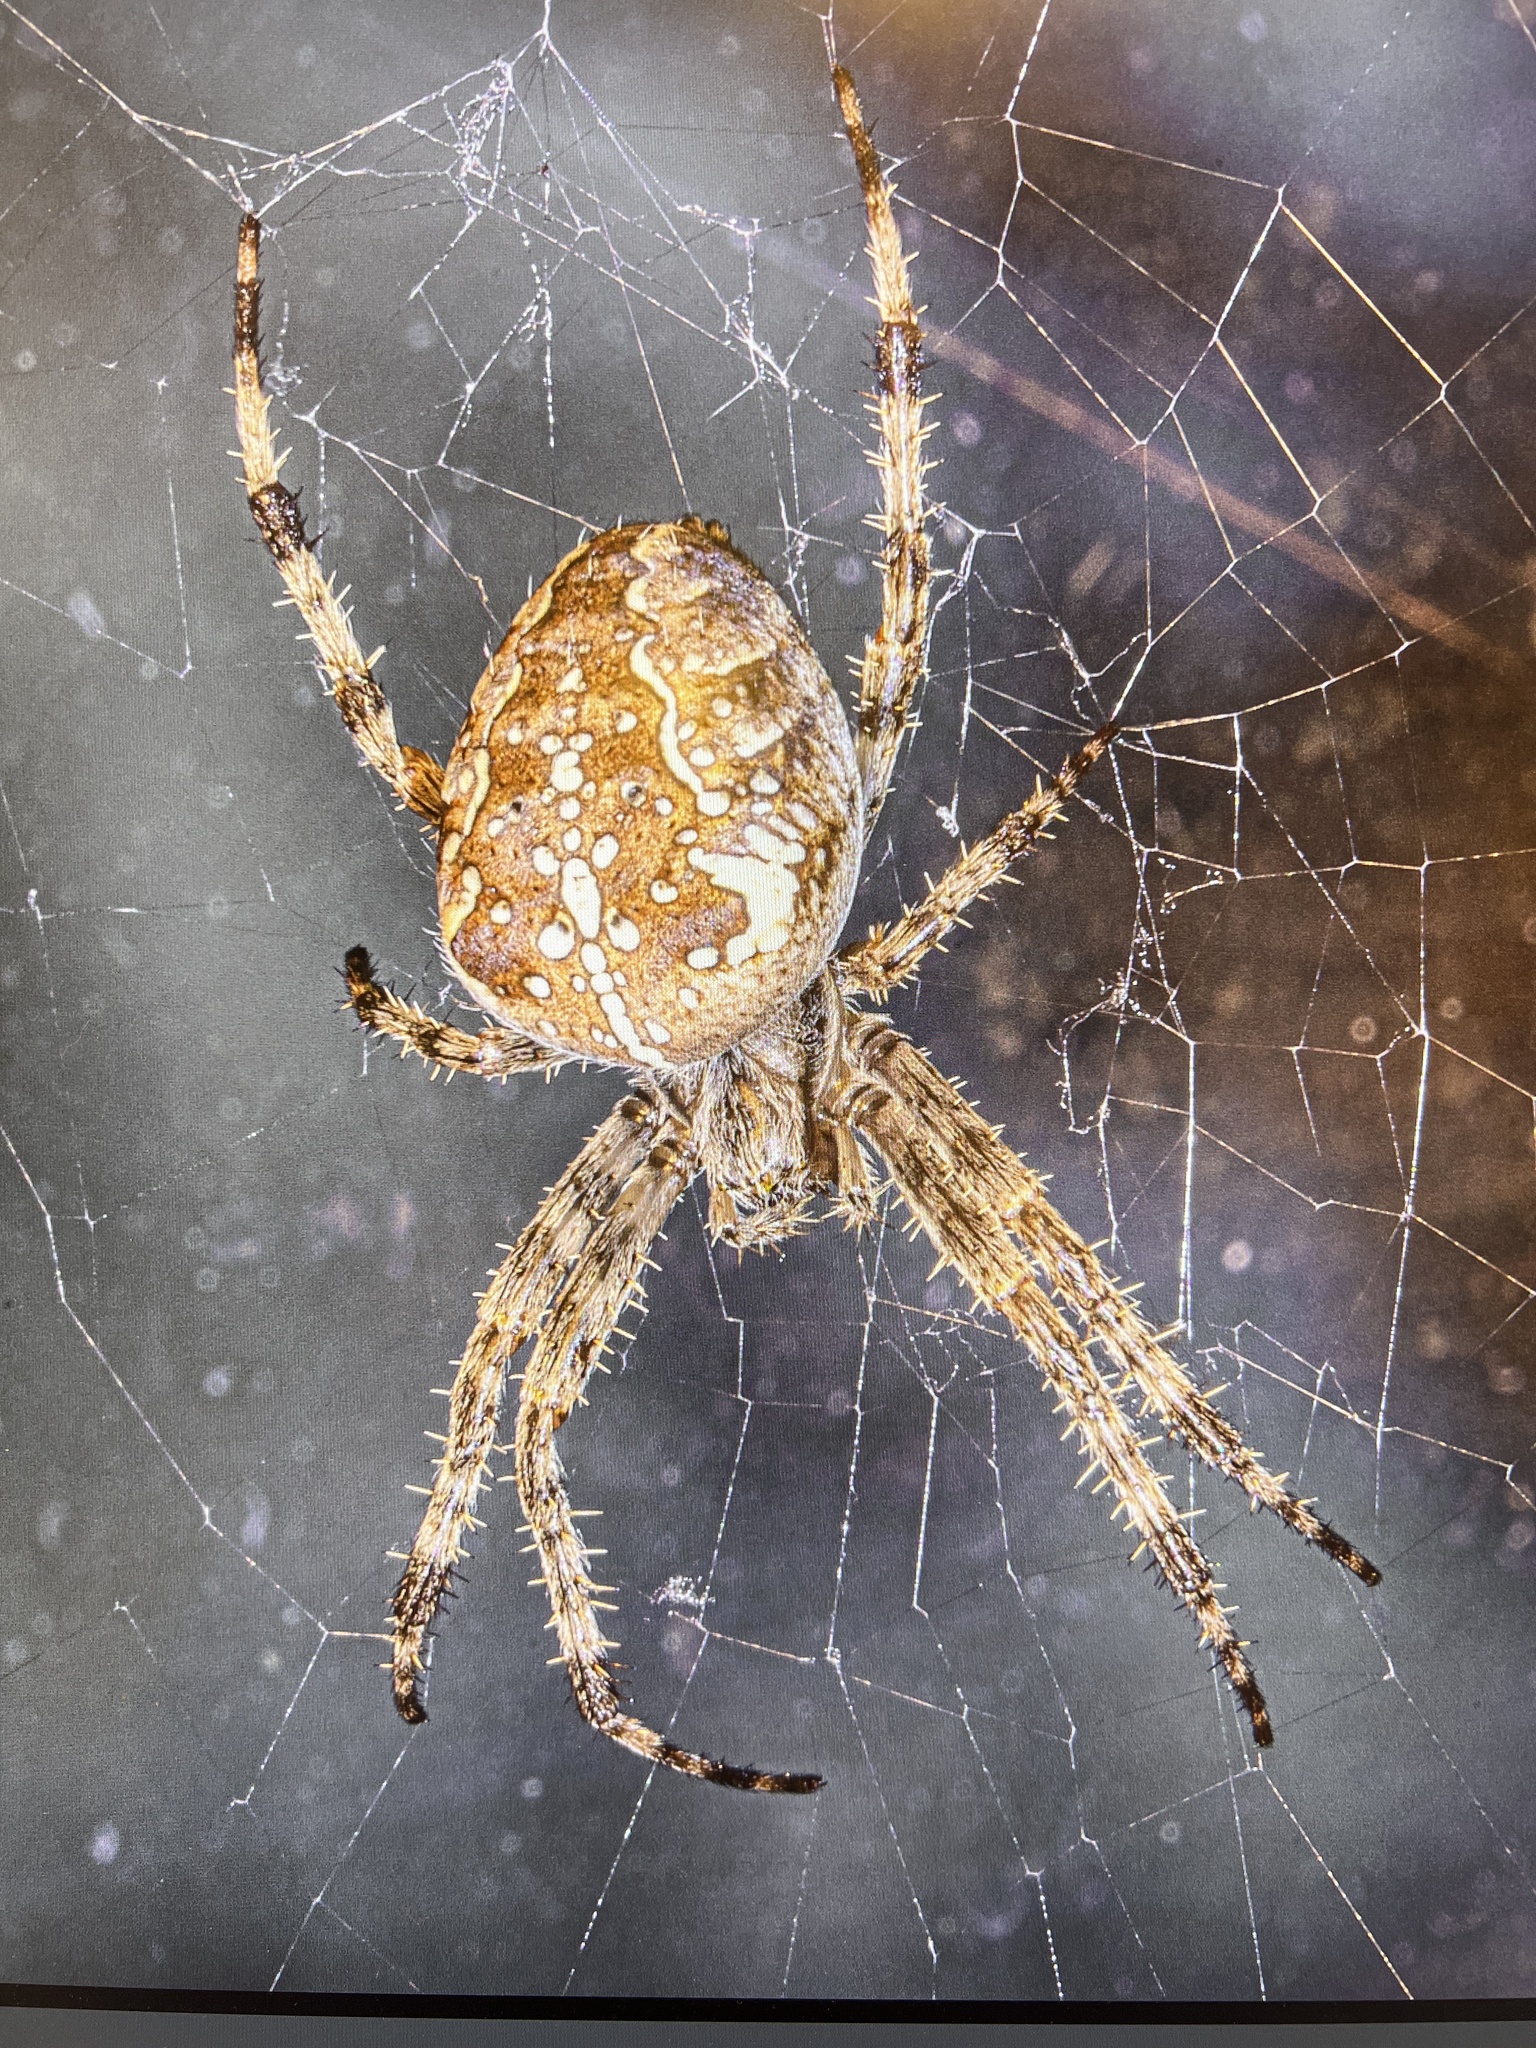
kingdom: Animalia
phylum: Arthropoda
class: Arachnida
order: Araneae
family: Araneidae
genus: Araneus
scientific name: Araneus diadematus
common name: Cross orbweaver
